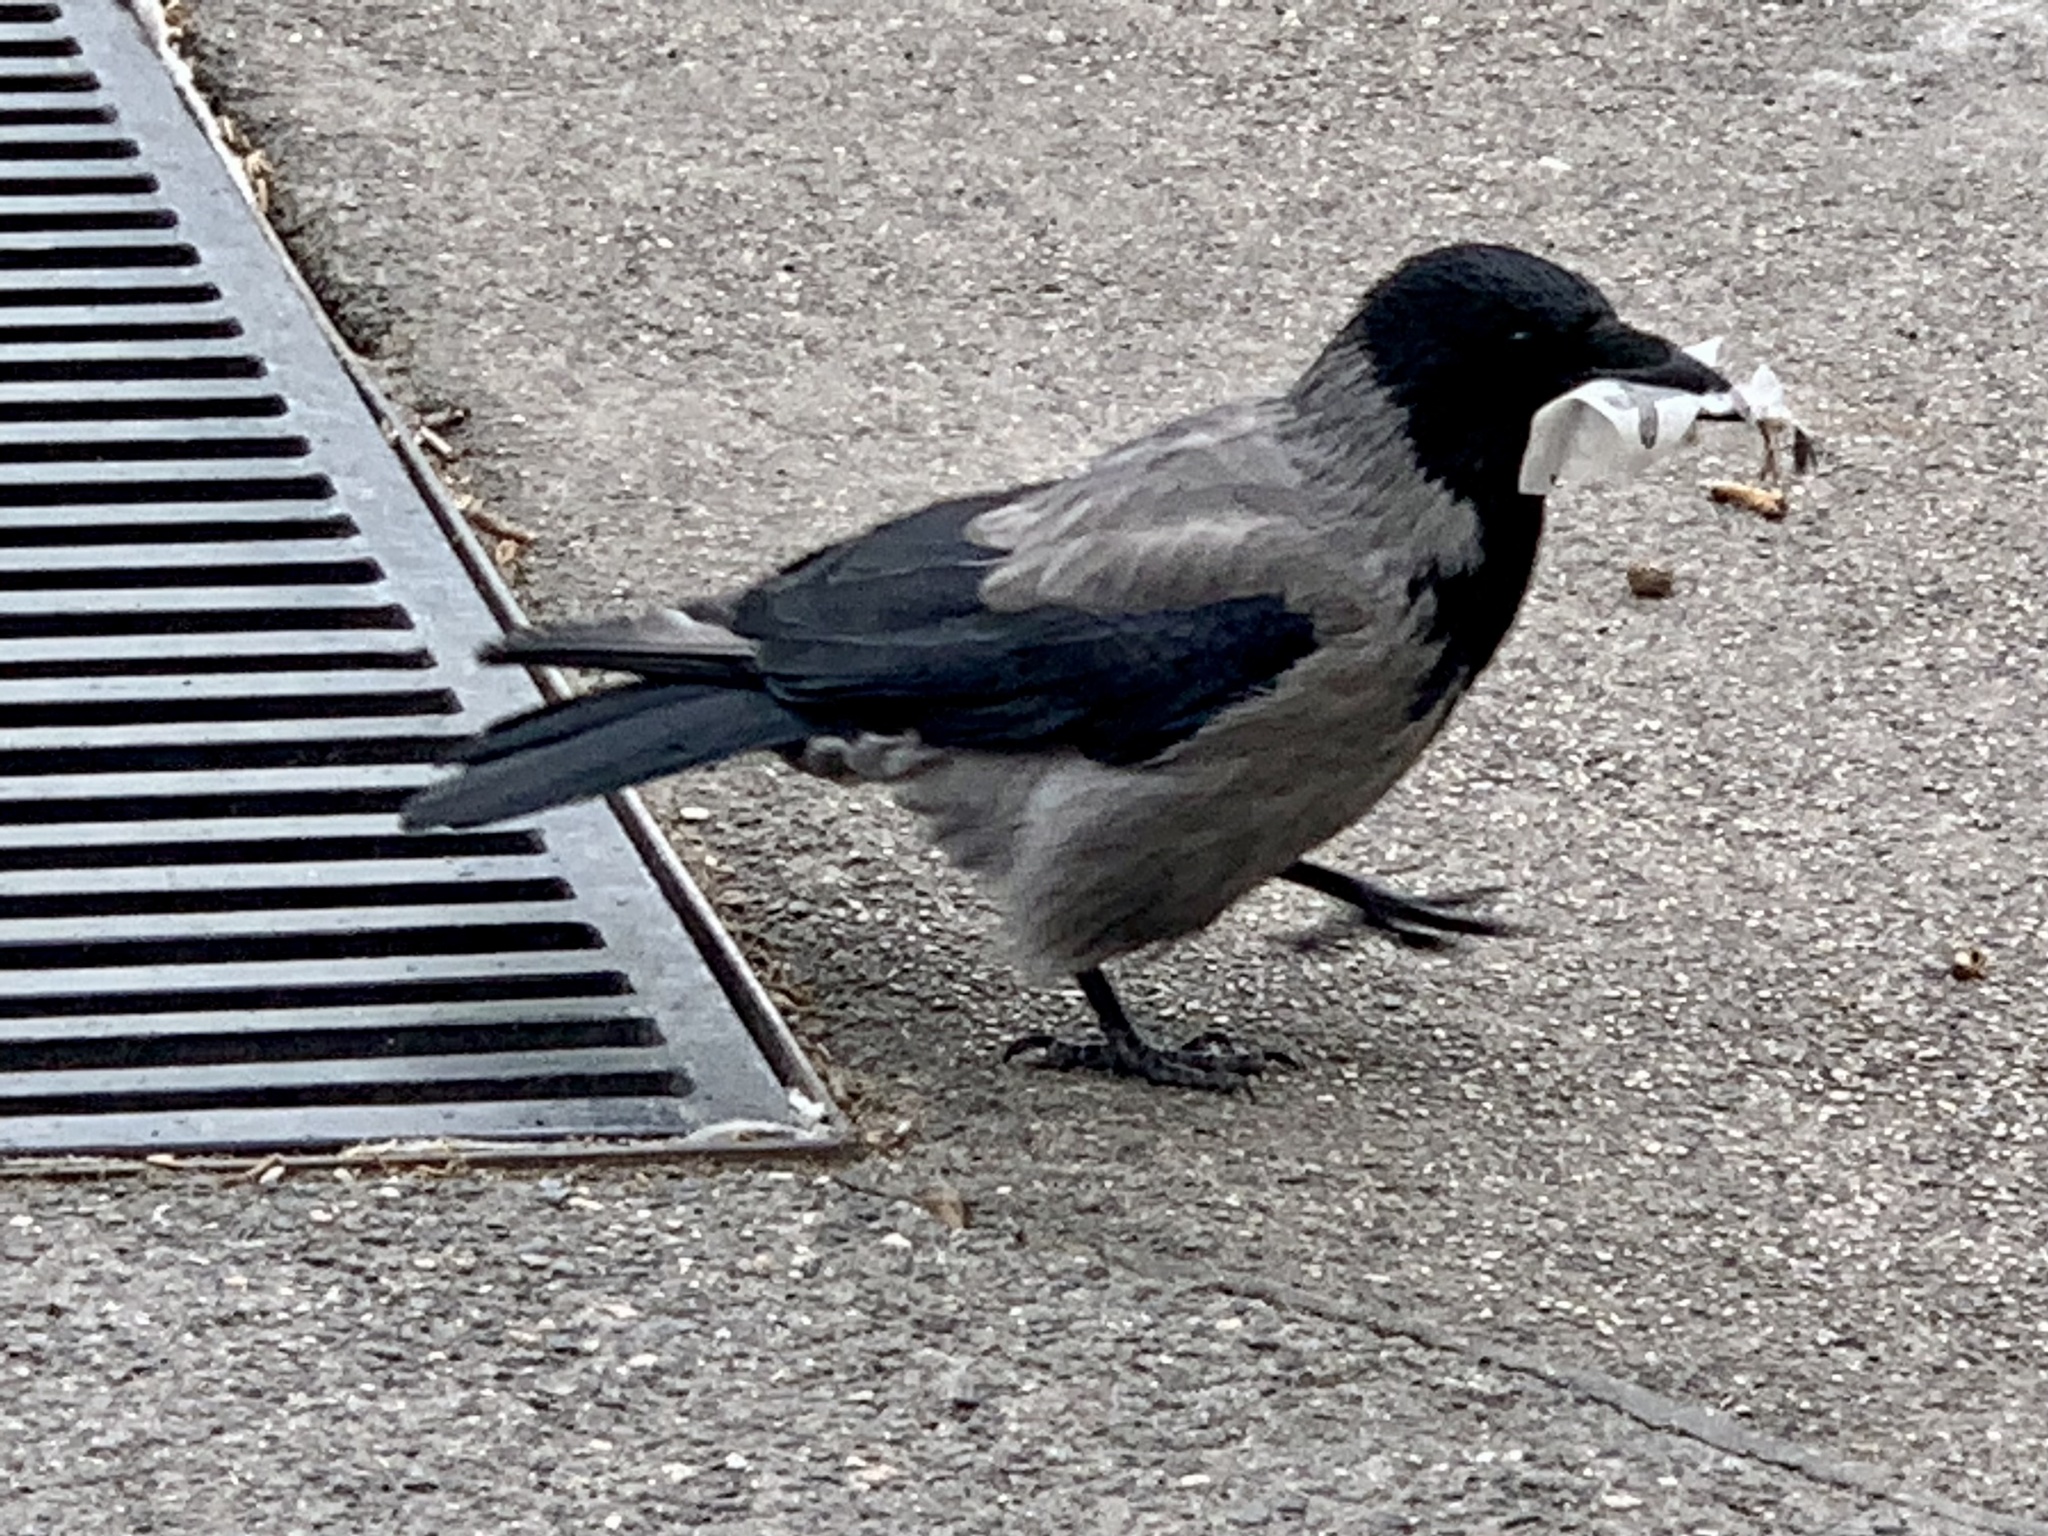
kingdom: Animalia
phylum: Chordata
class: Aves
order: Passeriformes
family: Corvidae
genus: Corvus
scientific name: Corvus cornix
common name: Hooded crow
